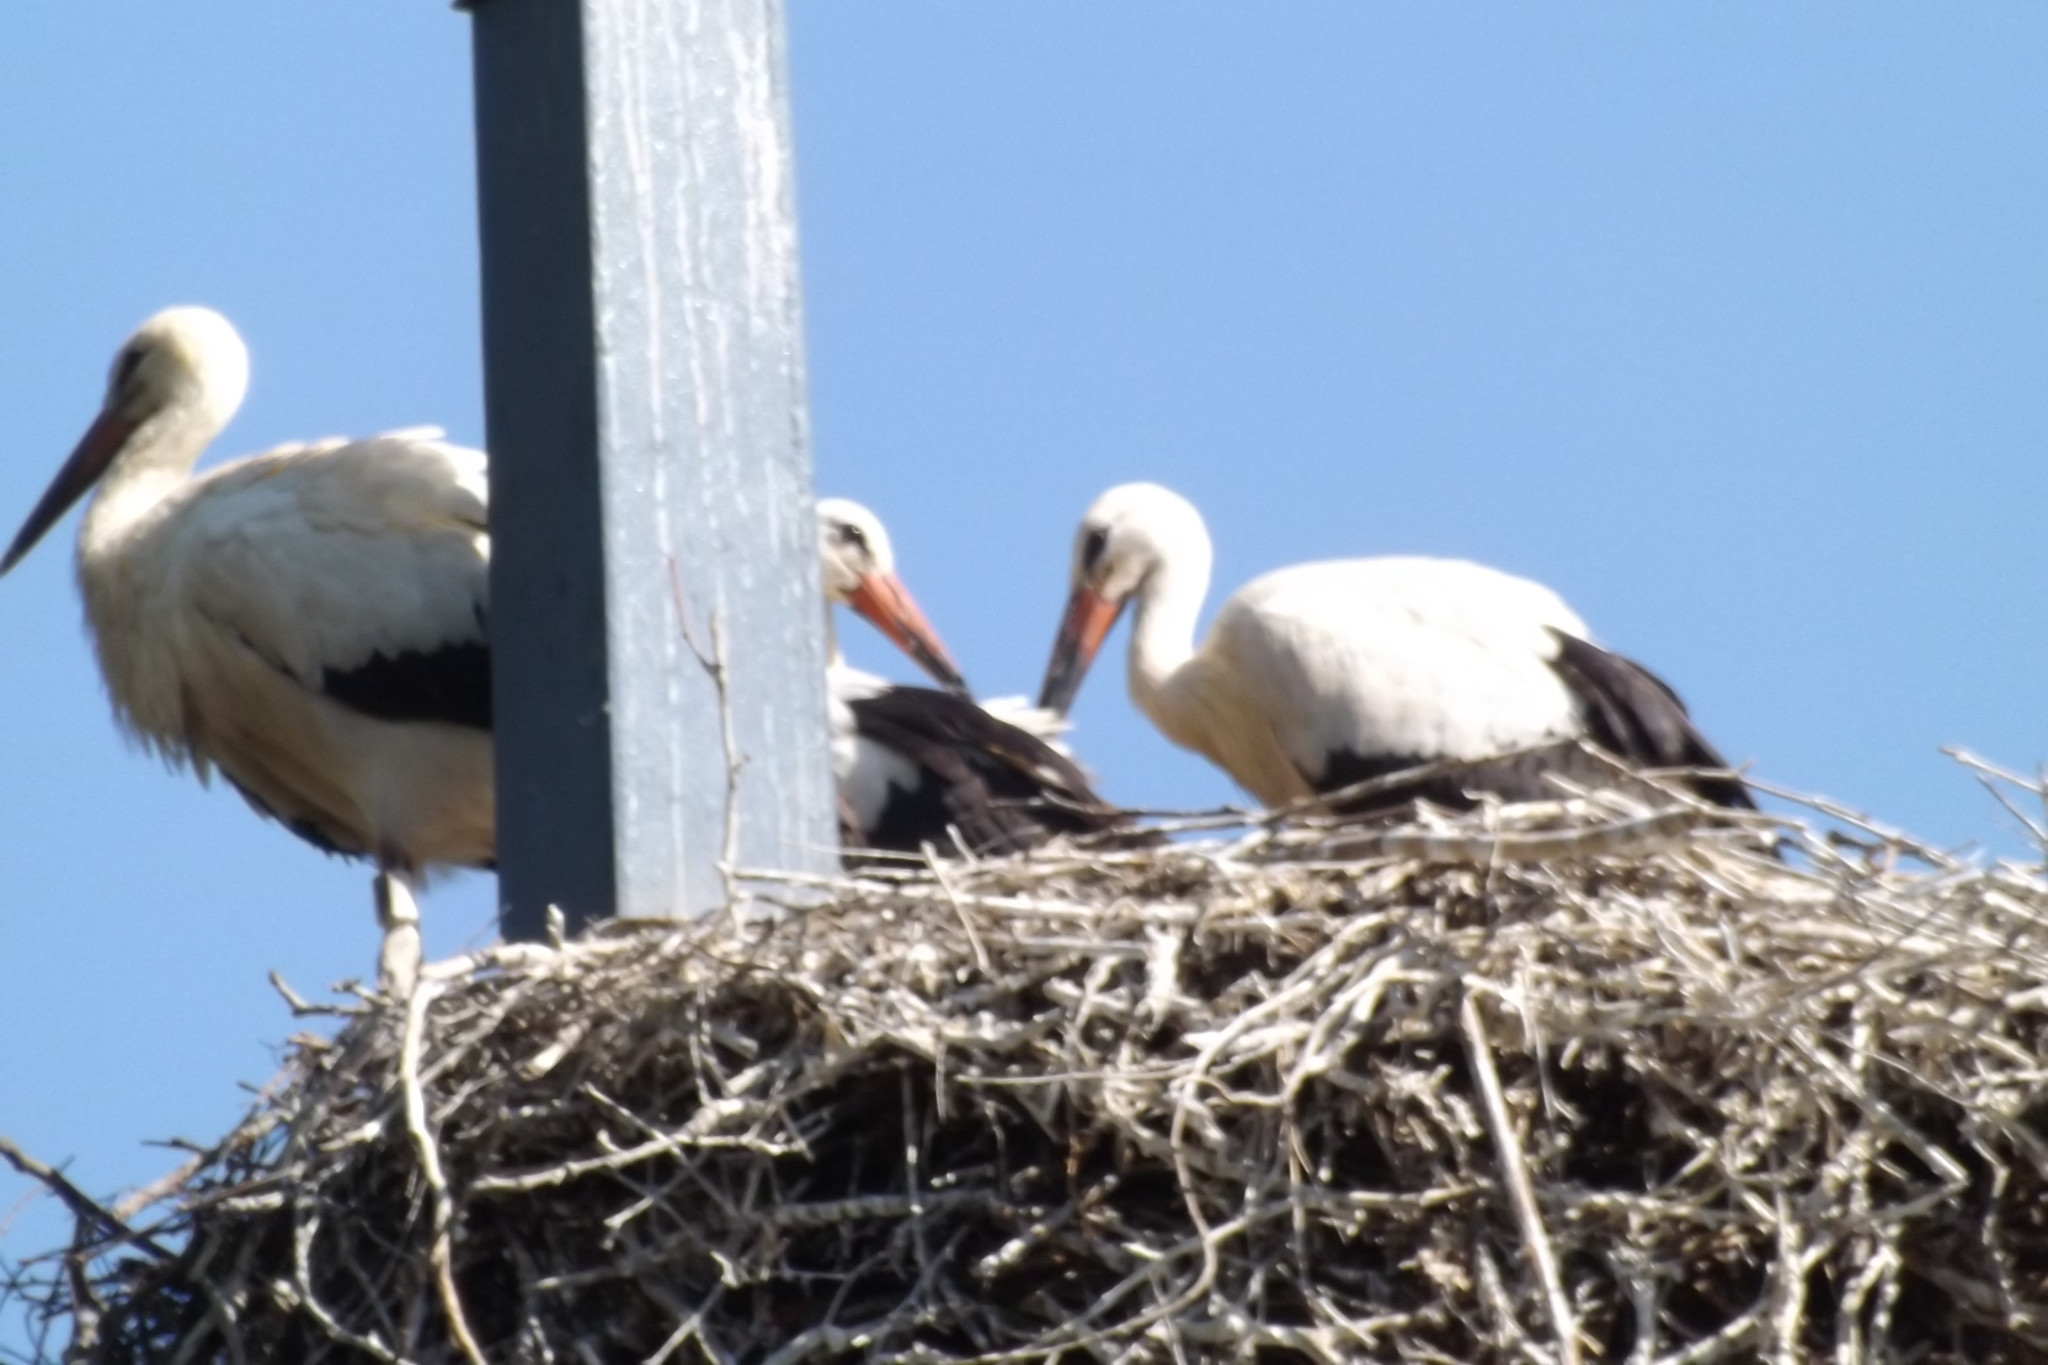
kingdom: Animalia
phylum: Chordata
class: Aves
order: Ciconiiformes
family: Ciconiidae
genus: Ciconia
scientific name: Ciconia ciconia
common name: White stork
